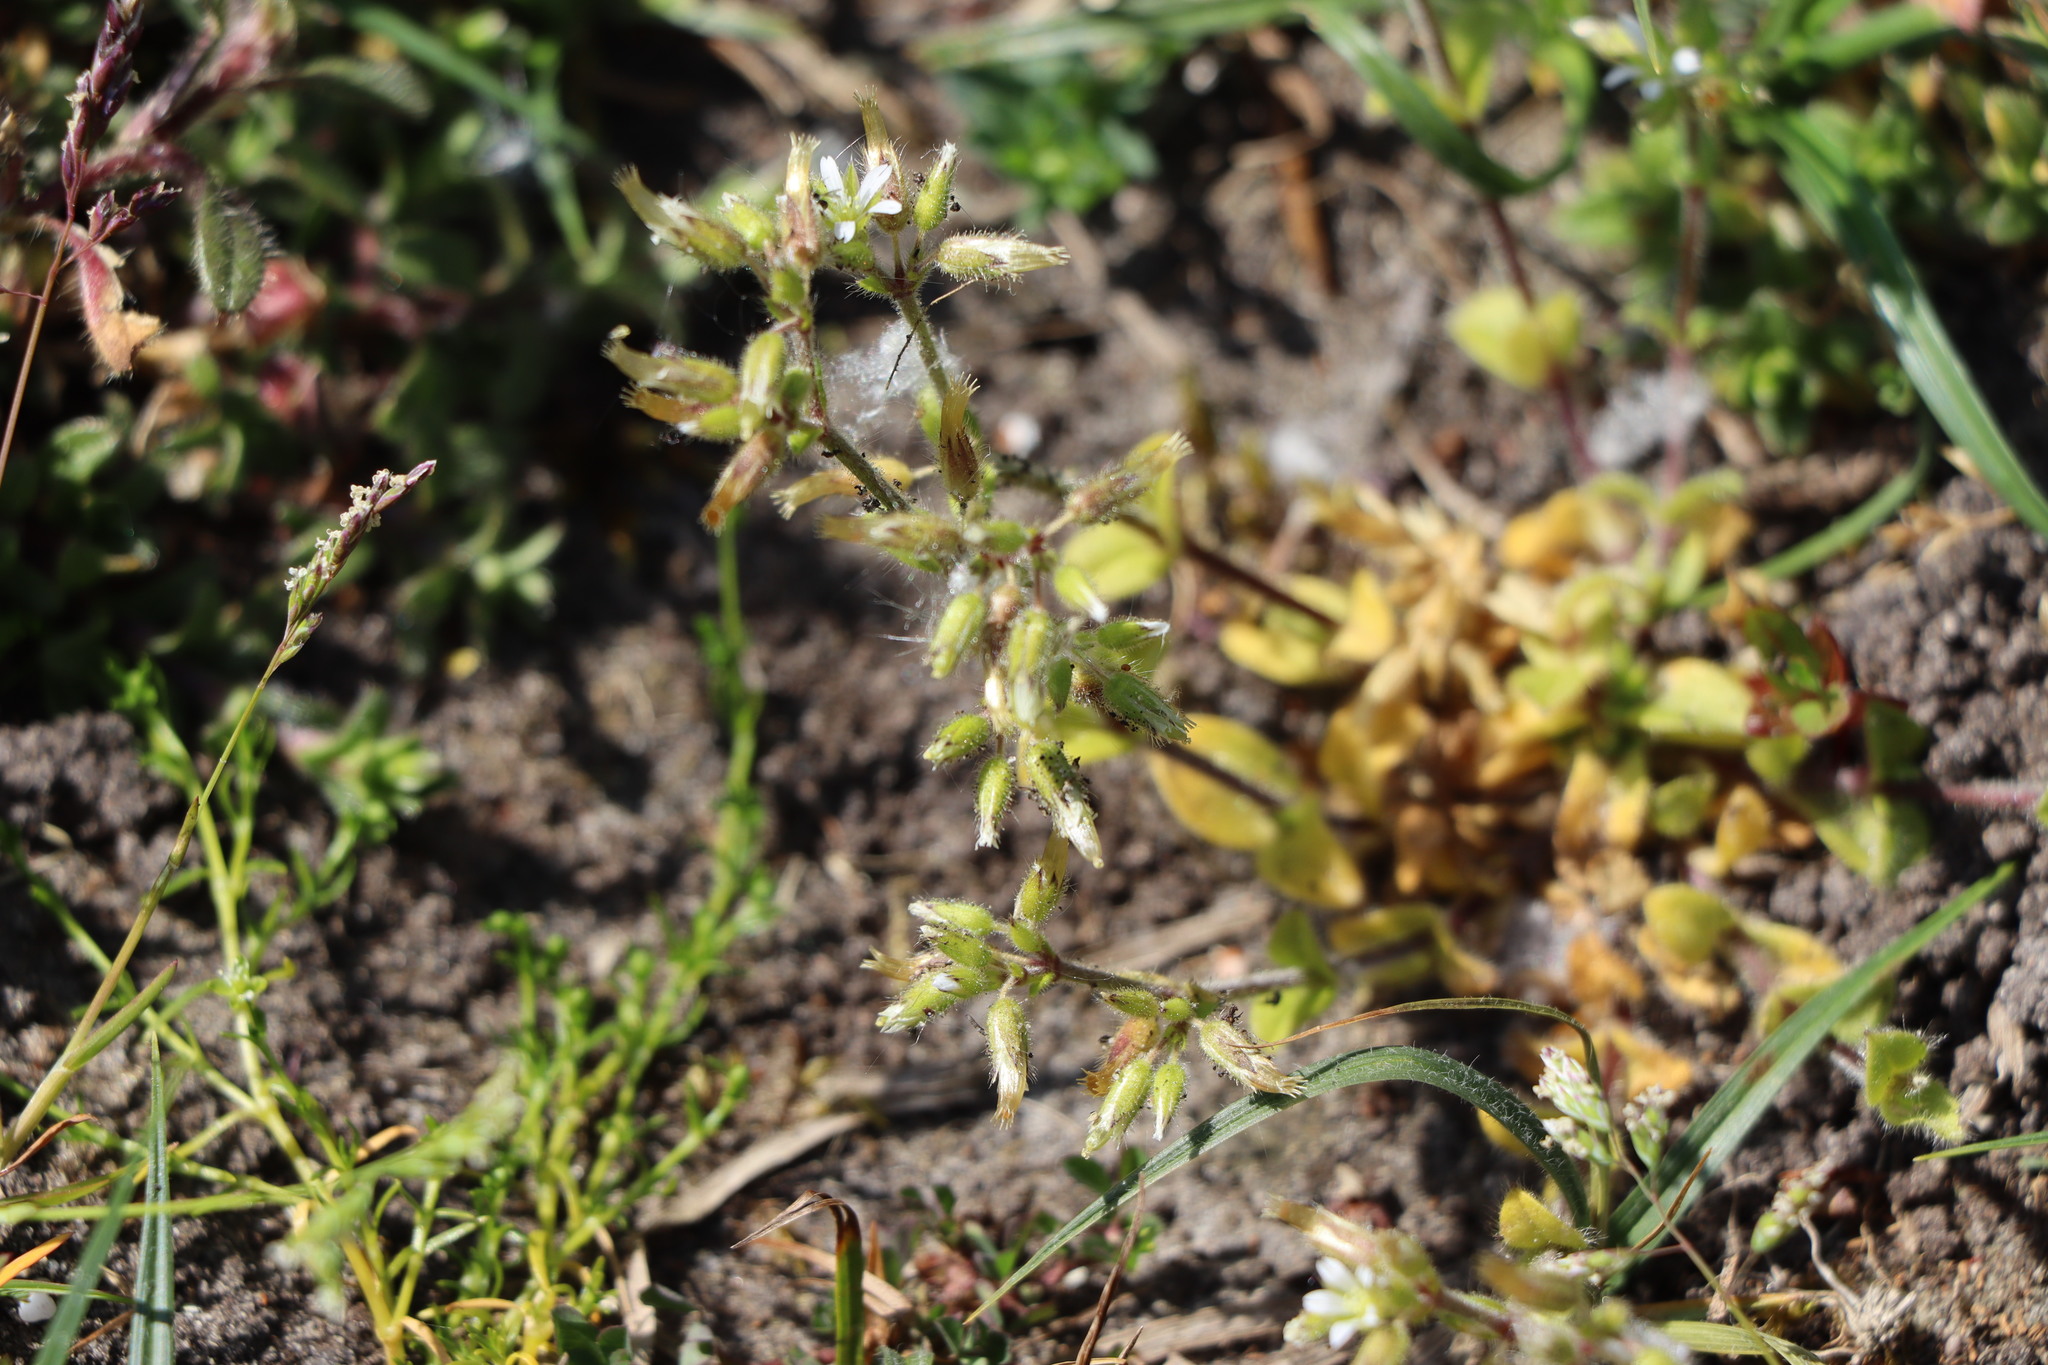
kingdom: Plantae
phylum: Tracheophyta
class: Magnoliopsida
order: Caryophyllales
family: Caryophyllaceae
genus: Cerastium
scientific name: Cerastium glomeratum
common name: Sticky chickweed
